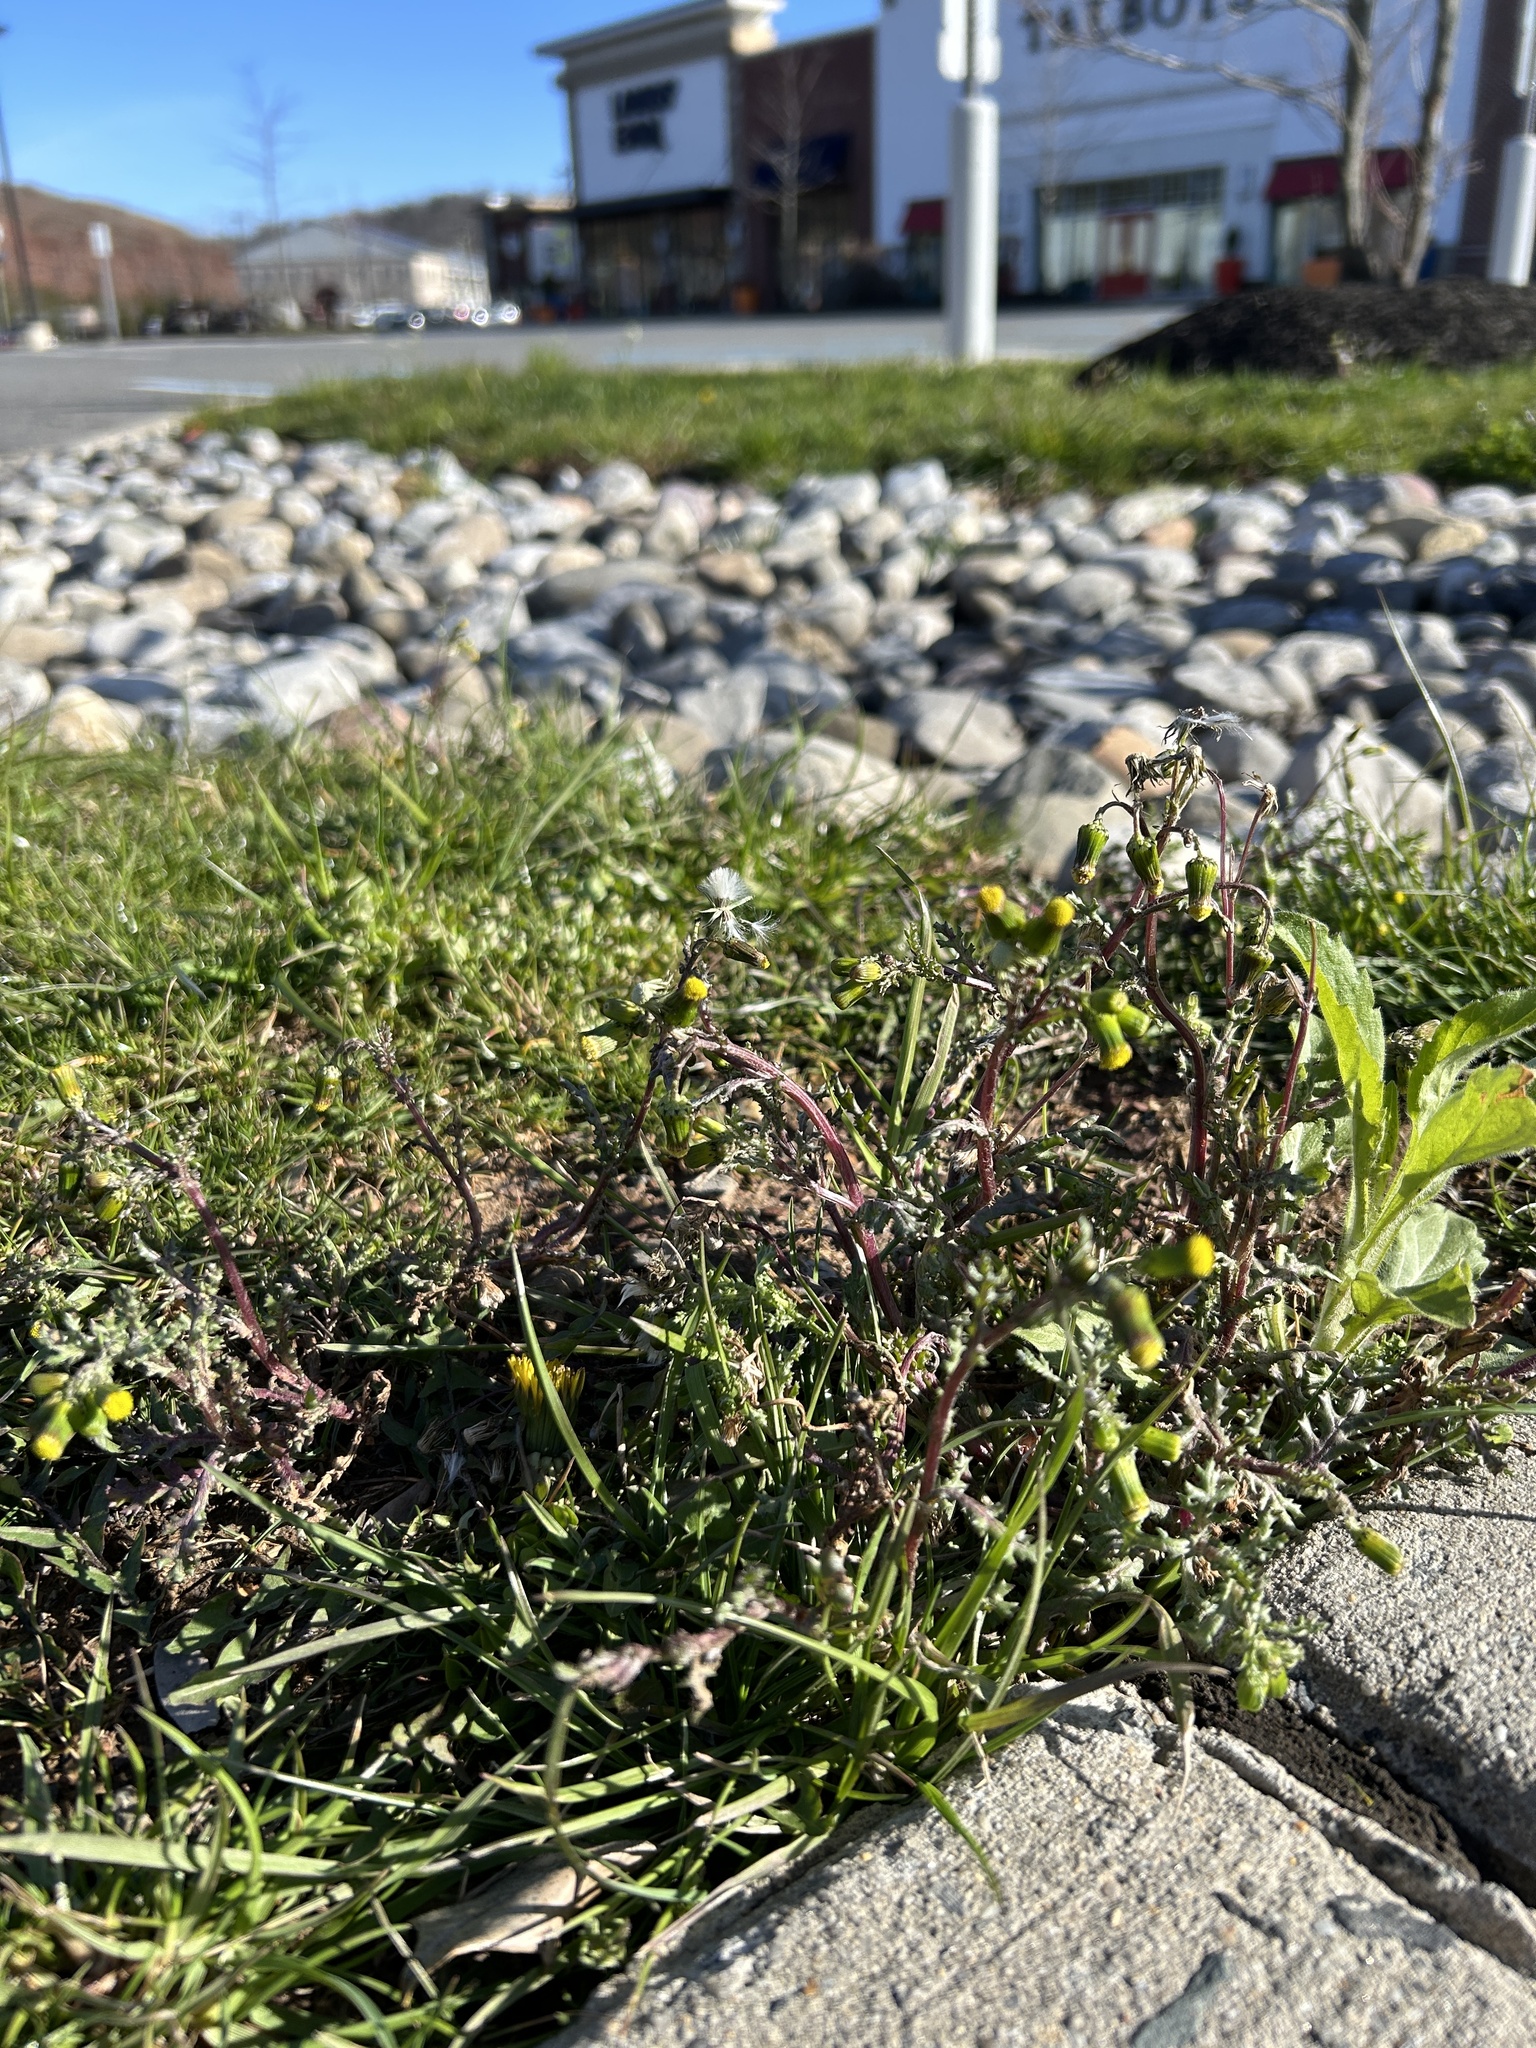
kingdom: Plantae
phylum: Tracheophyta
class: Magnoliopsida
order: Asterales
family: Asteraceae
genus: Senecio
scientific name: Senecio vulgaris
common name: Old-man-in-the-spring
